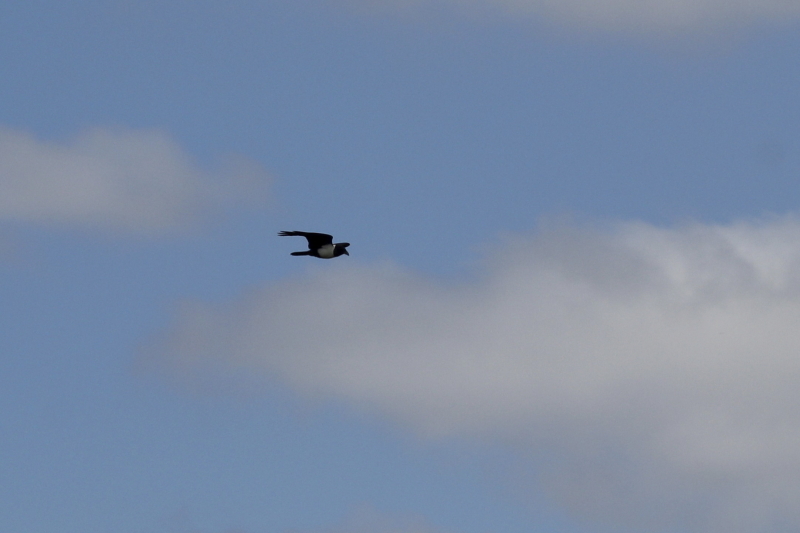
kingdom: Animalia
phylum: Chordata
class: Aves
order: Passeriformes
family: Corvidae
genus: Corvus
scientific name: Corvus albus
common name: Pied crow
